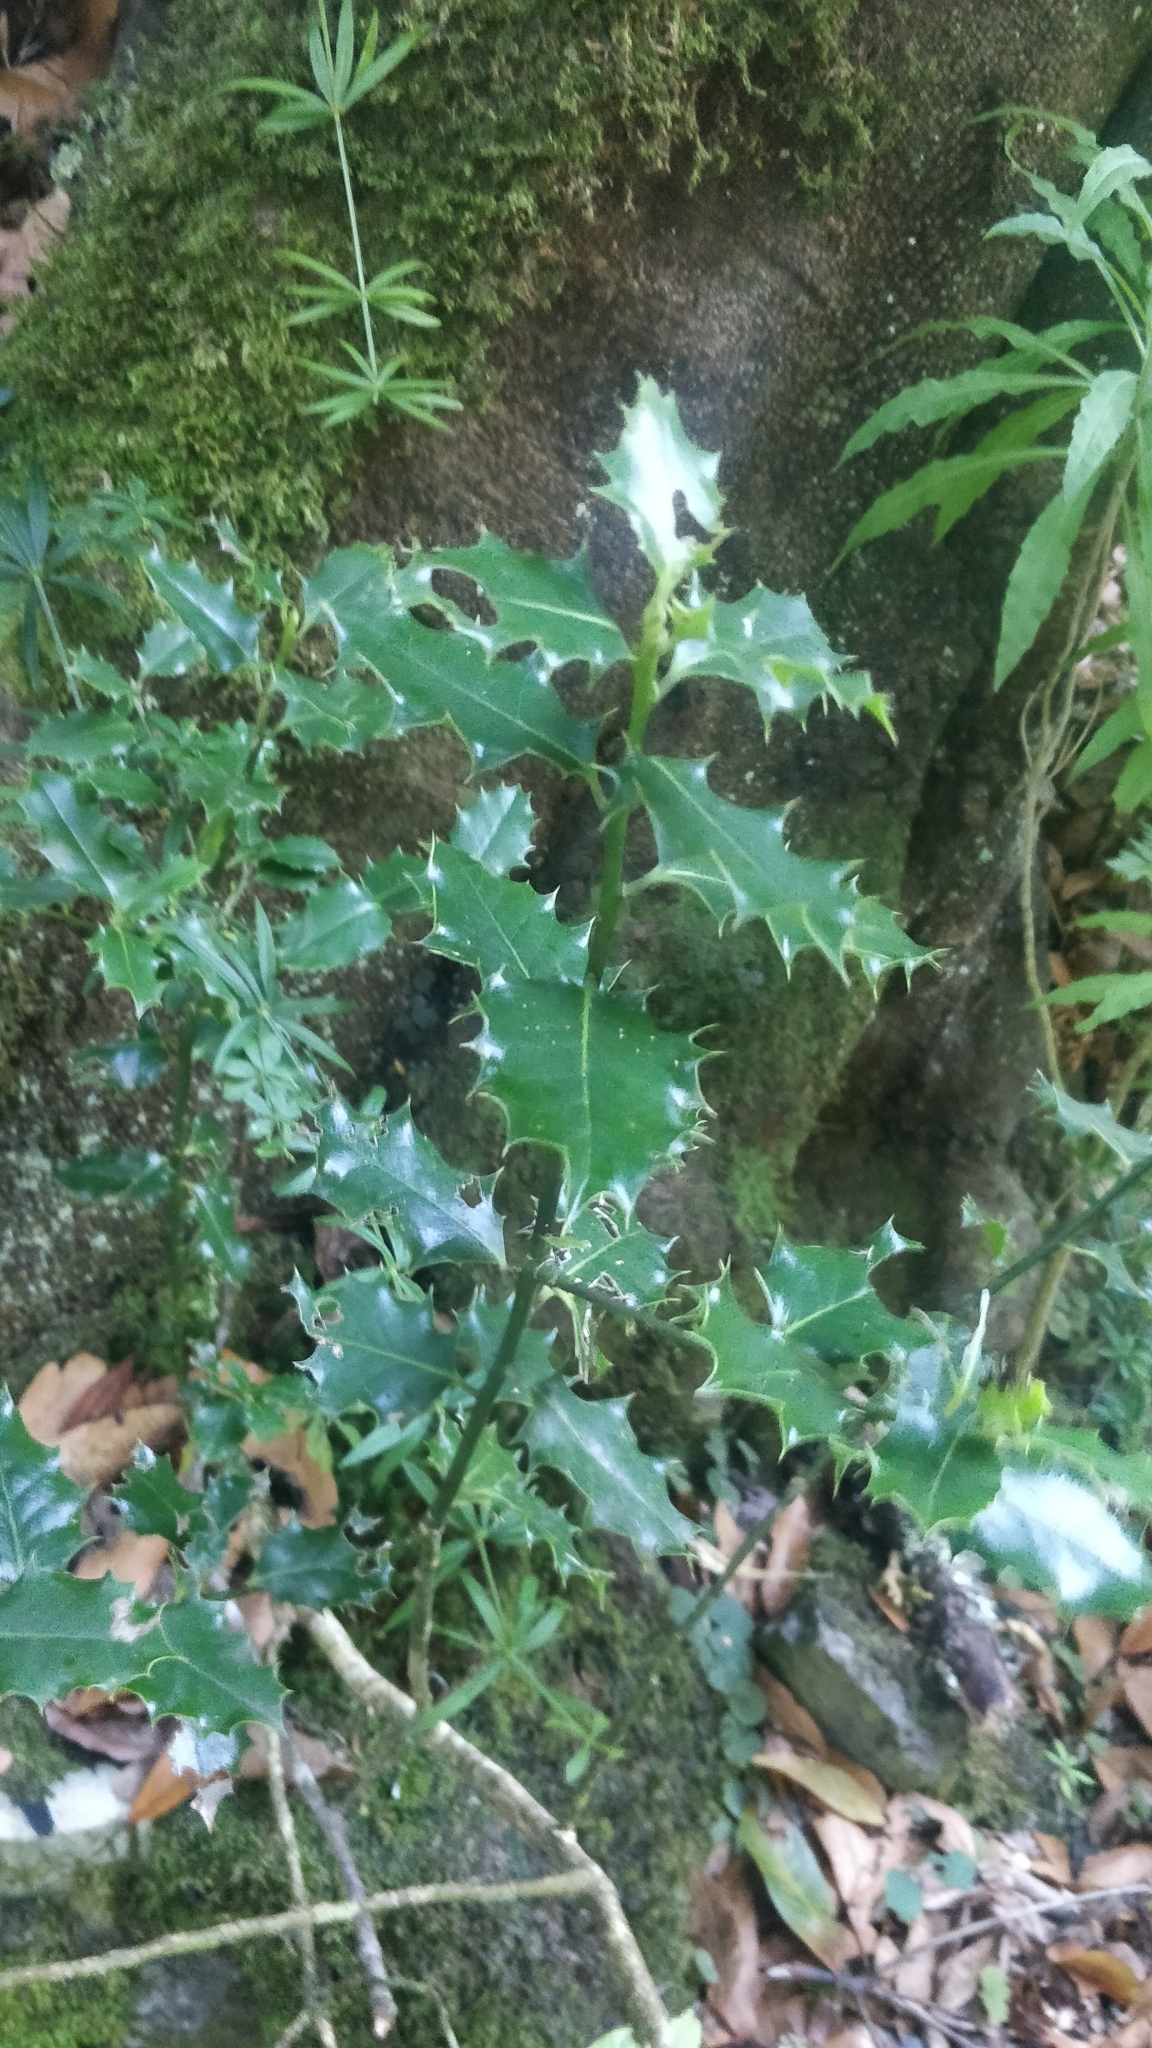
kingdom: Plantae
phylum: Tracheophyta
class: Magnoliopsida
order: Aquifoliales
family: Aquifoliaceae
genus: Ilex
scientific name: Ilex aquifolium
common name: English holly
